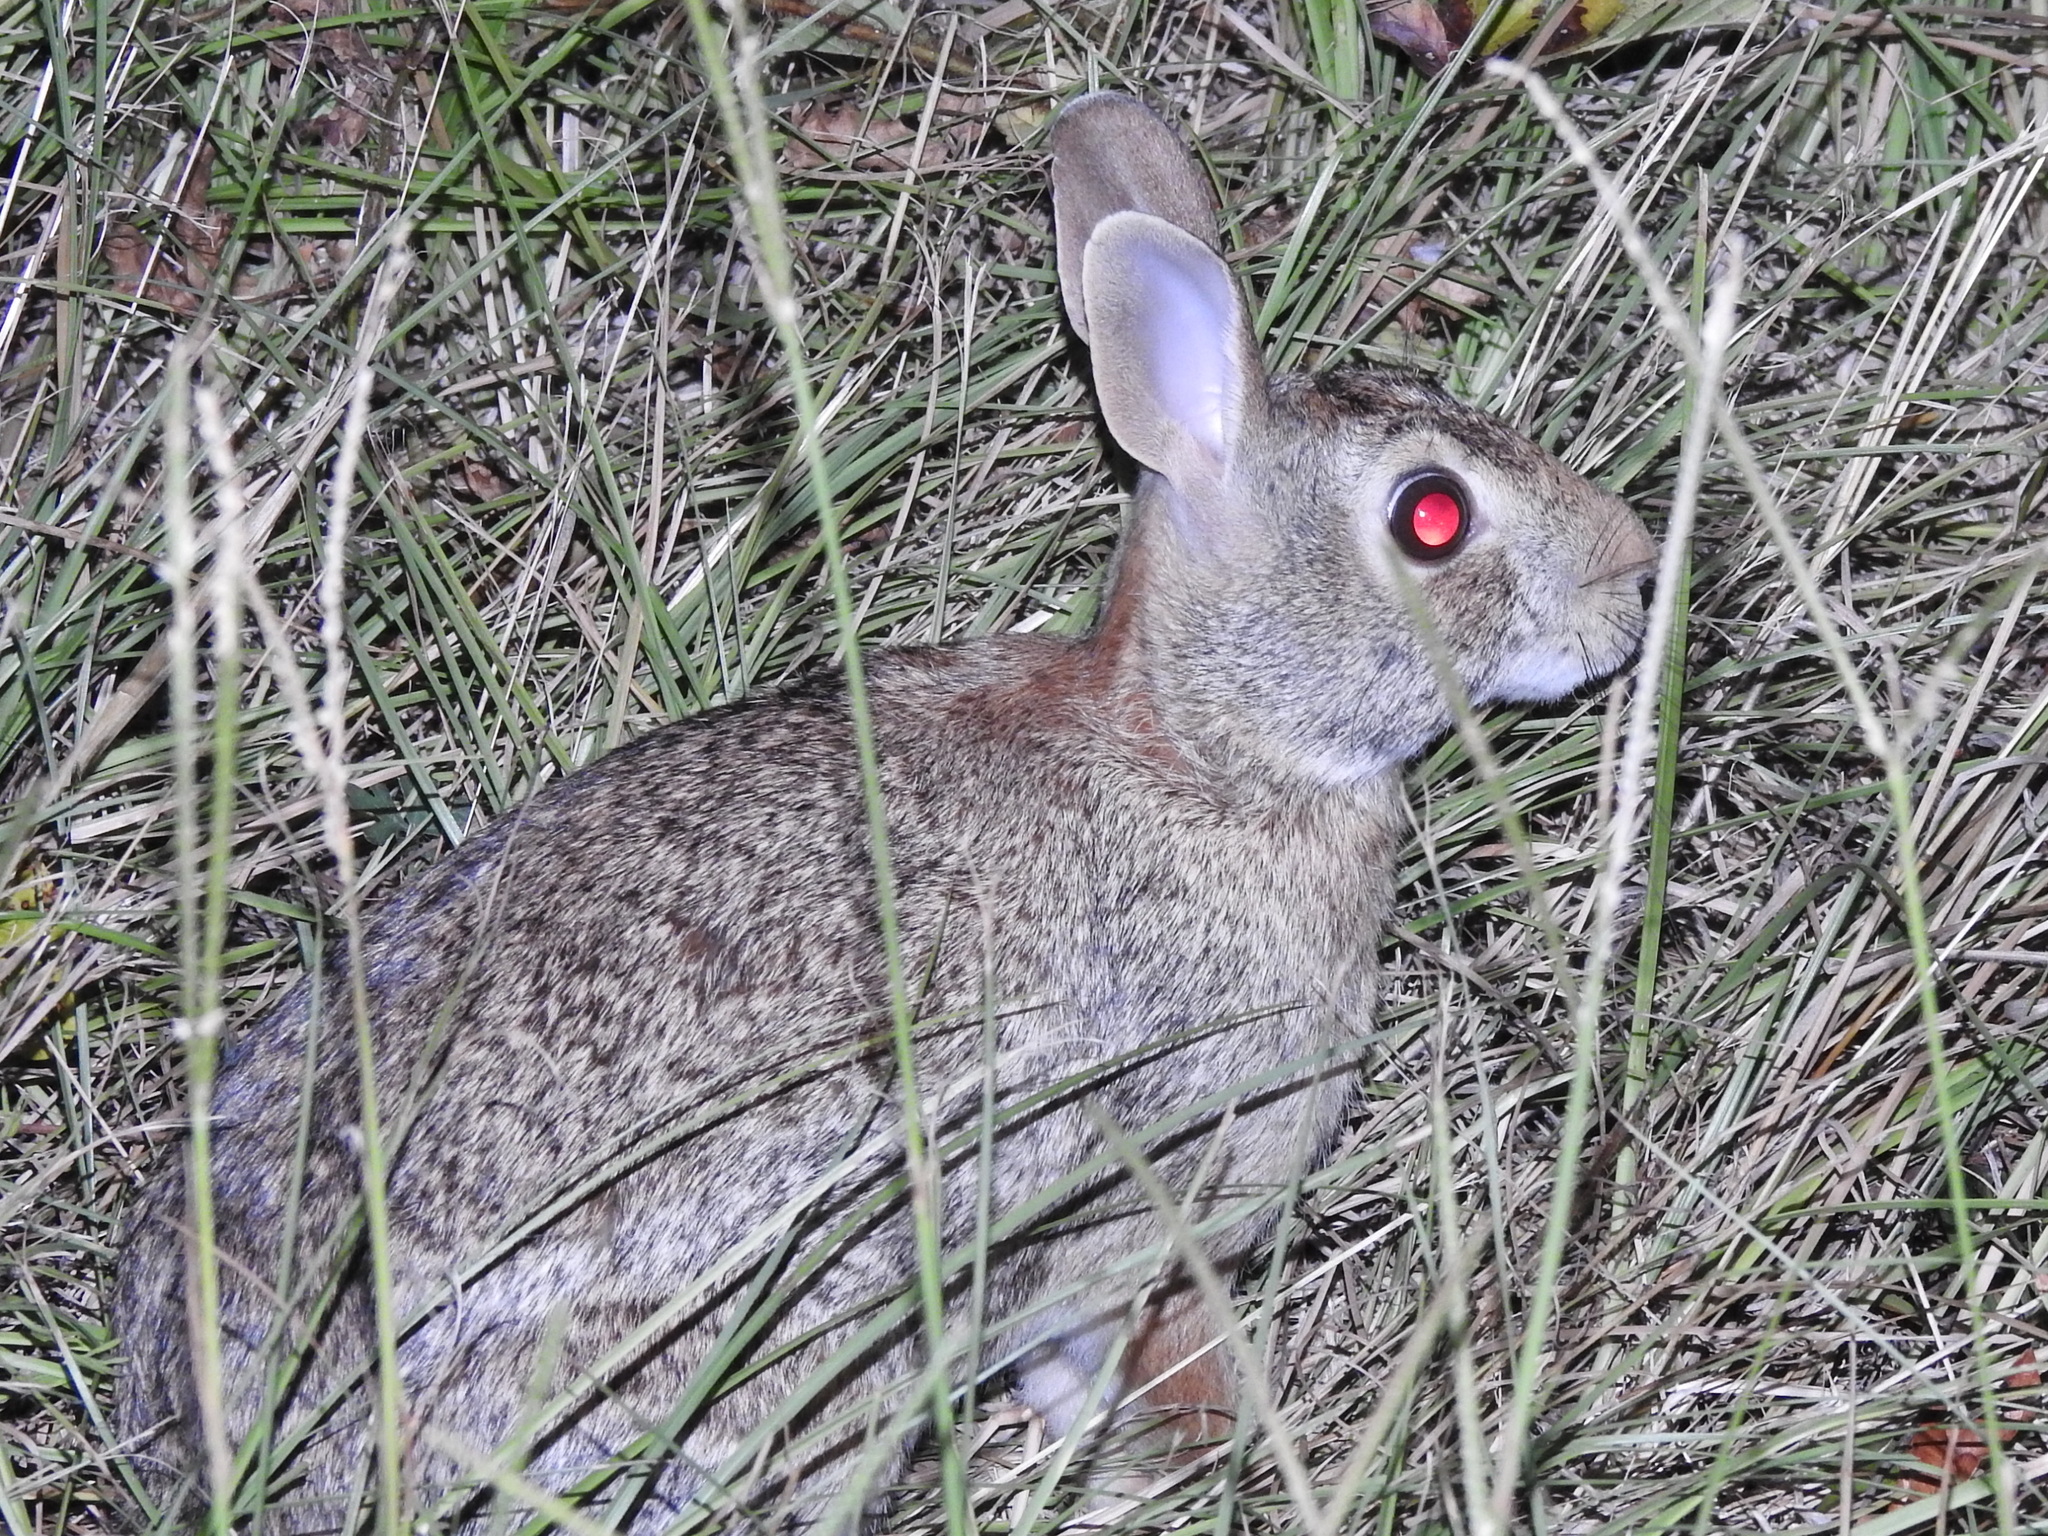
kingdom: Animalia
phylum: Chordata
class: Mammalia
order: Lagomorpha
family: Leporidae
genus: Sylvilagus
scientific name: Sylvilagus floridanus
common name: Eastern cottontail
